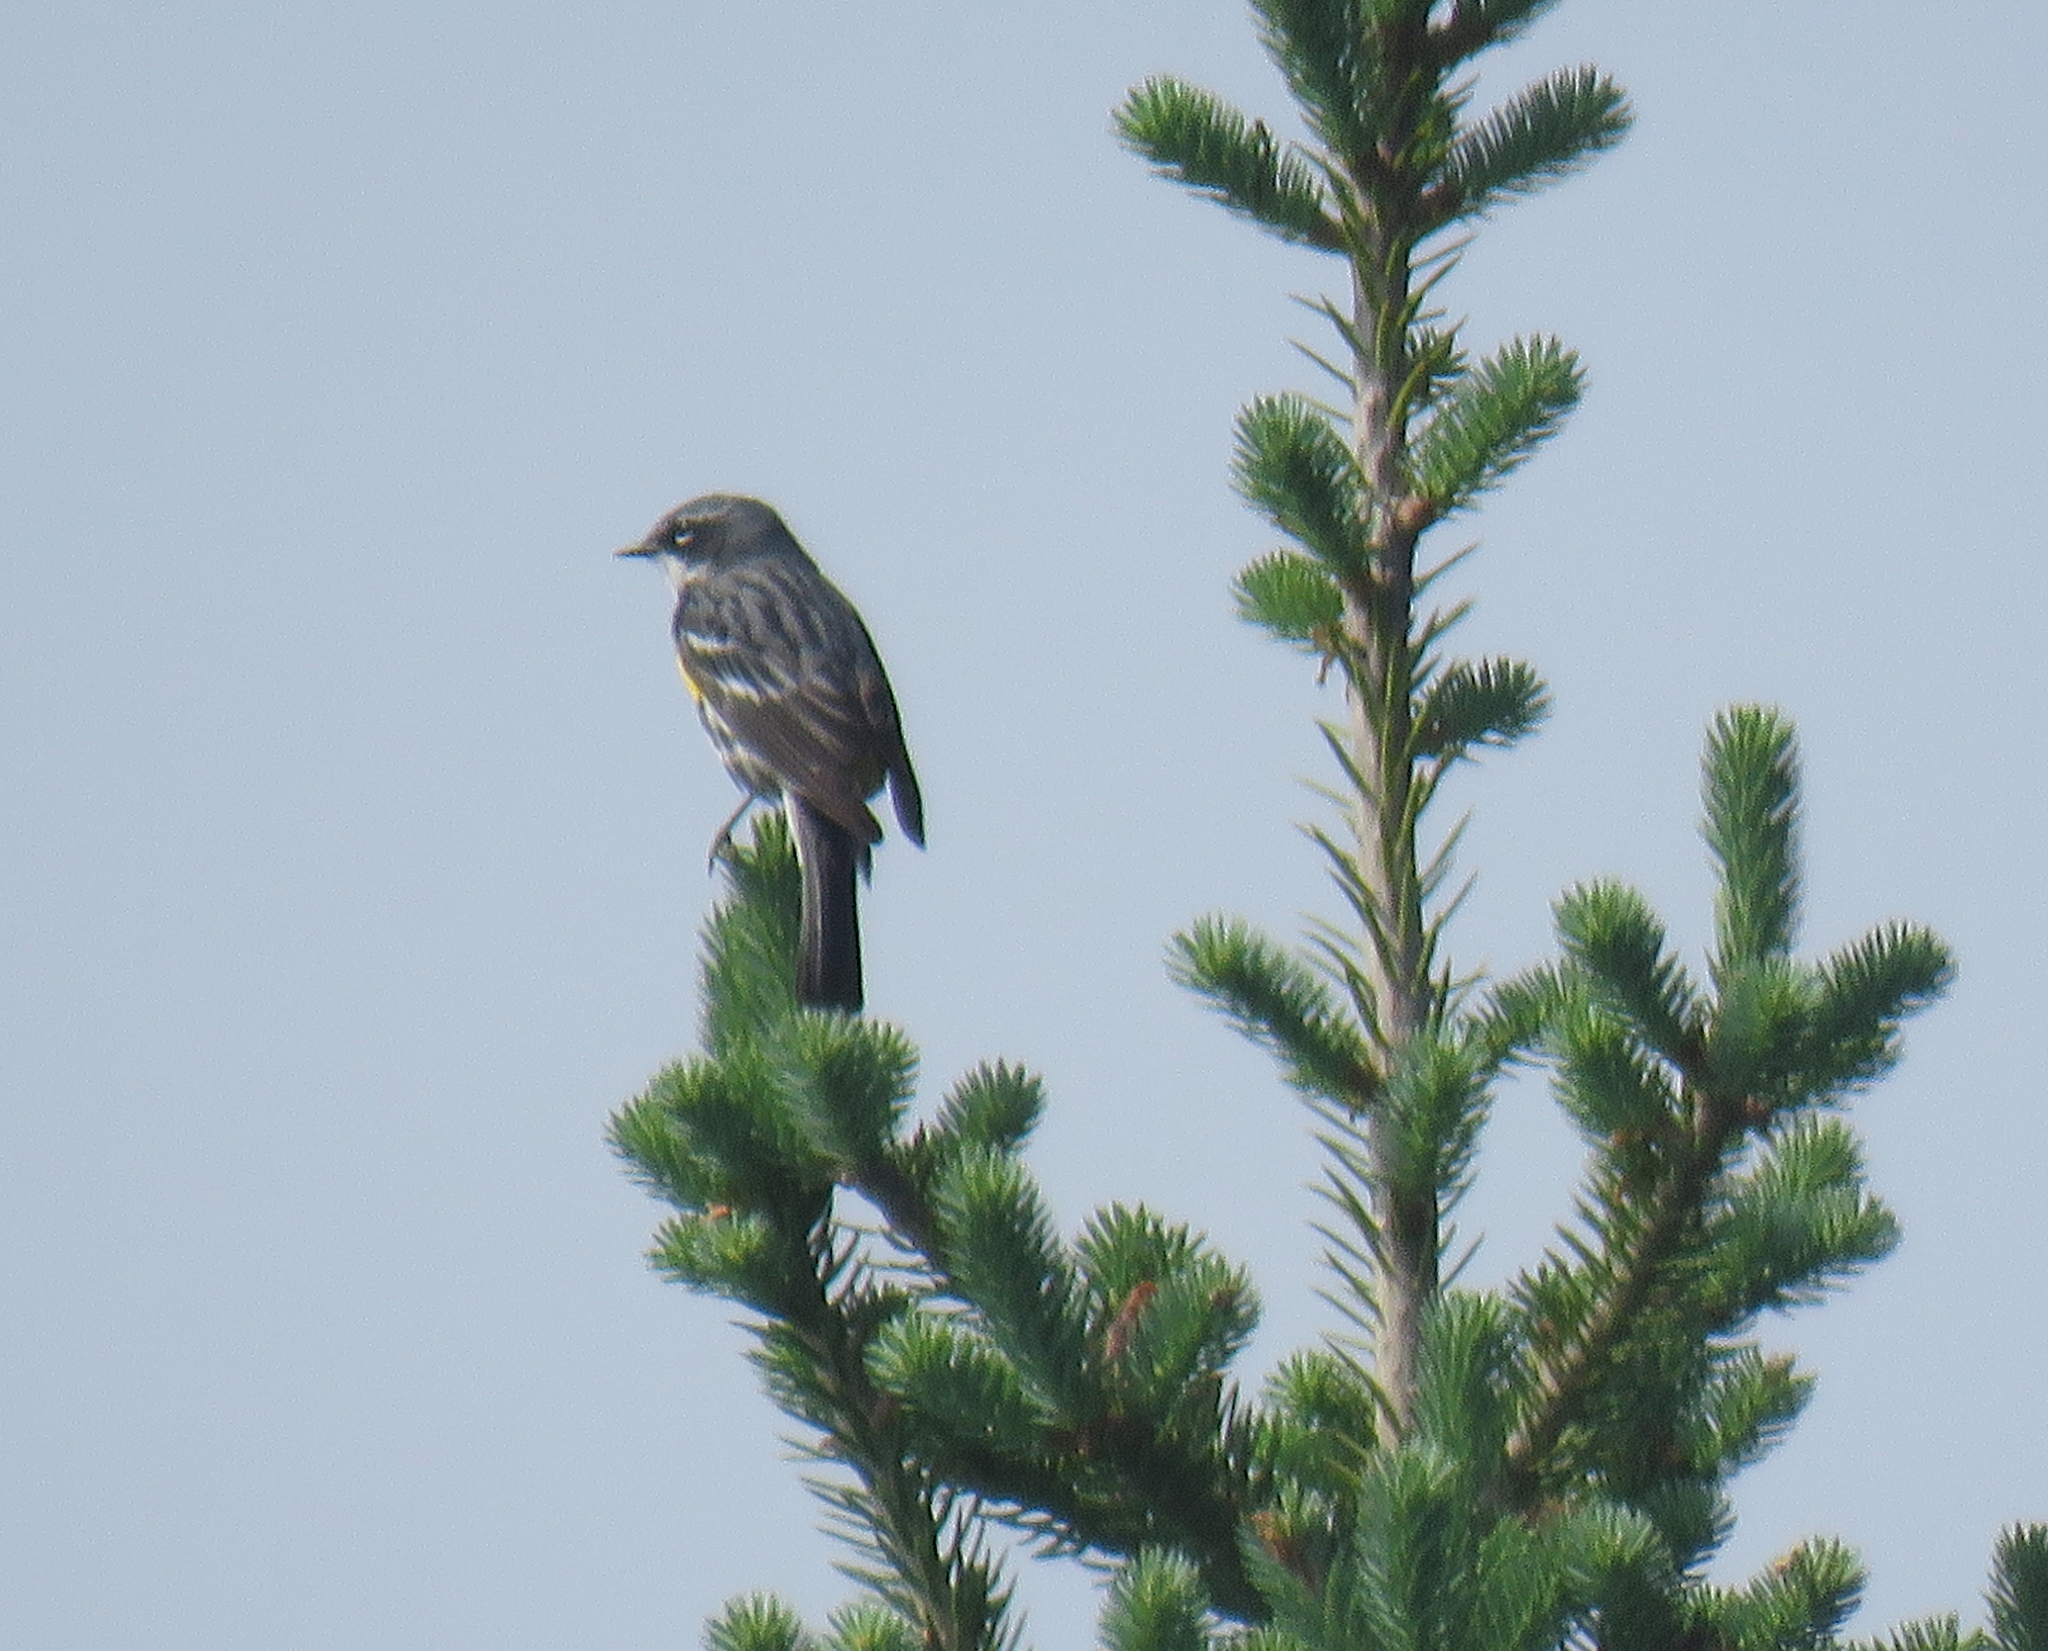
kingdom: Animalia
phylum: Chordata
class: Aves
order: Passeriformes
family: Parulidae
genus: Setophaga
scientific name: Setophaga coronata
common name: Myrtle warbler
